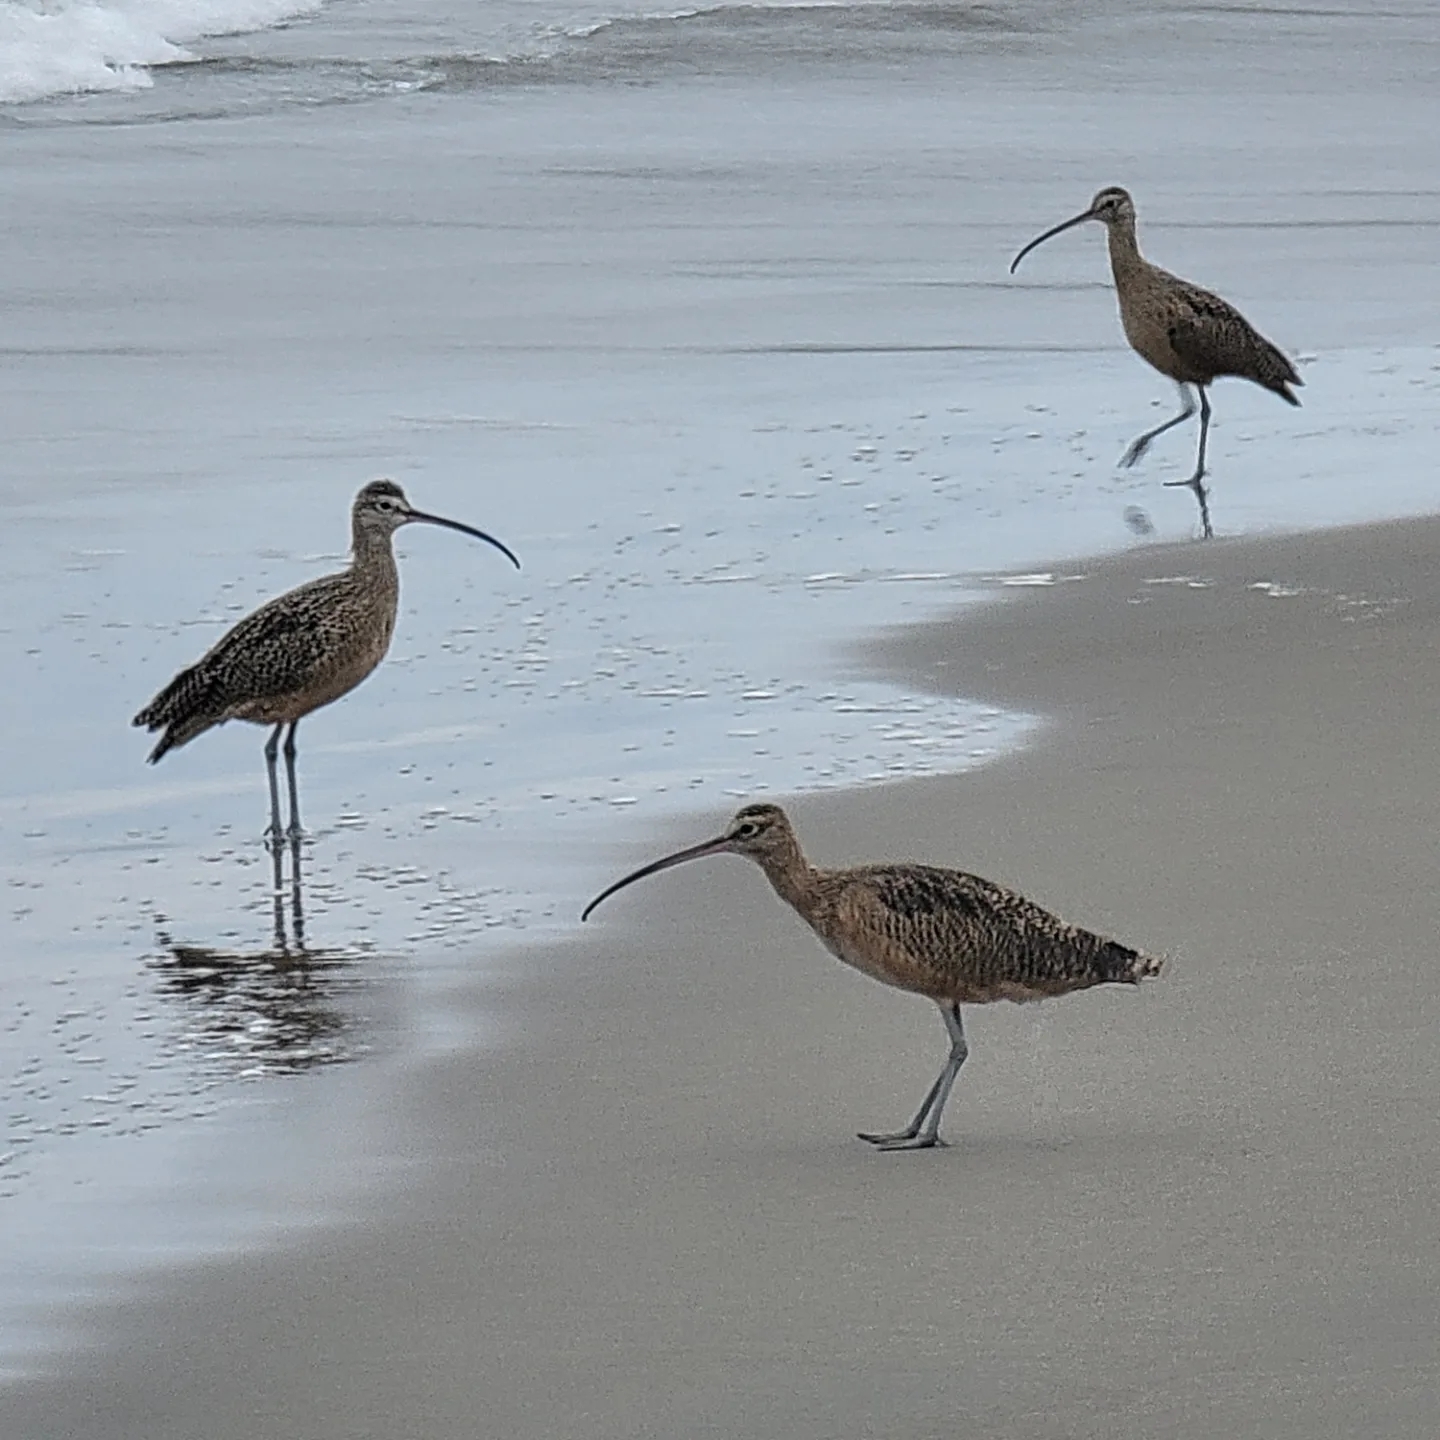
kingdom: Animalia
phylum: Chordata
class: Aves
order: Charadriiformes
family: Scolopacidae
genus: Numenius
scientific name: Numenius phaeopus
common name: Whimbrel
